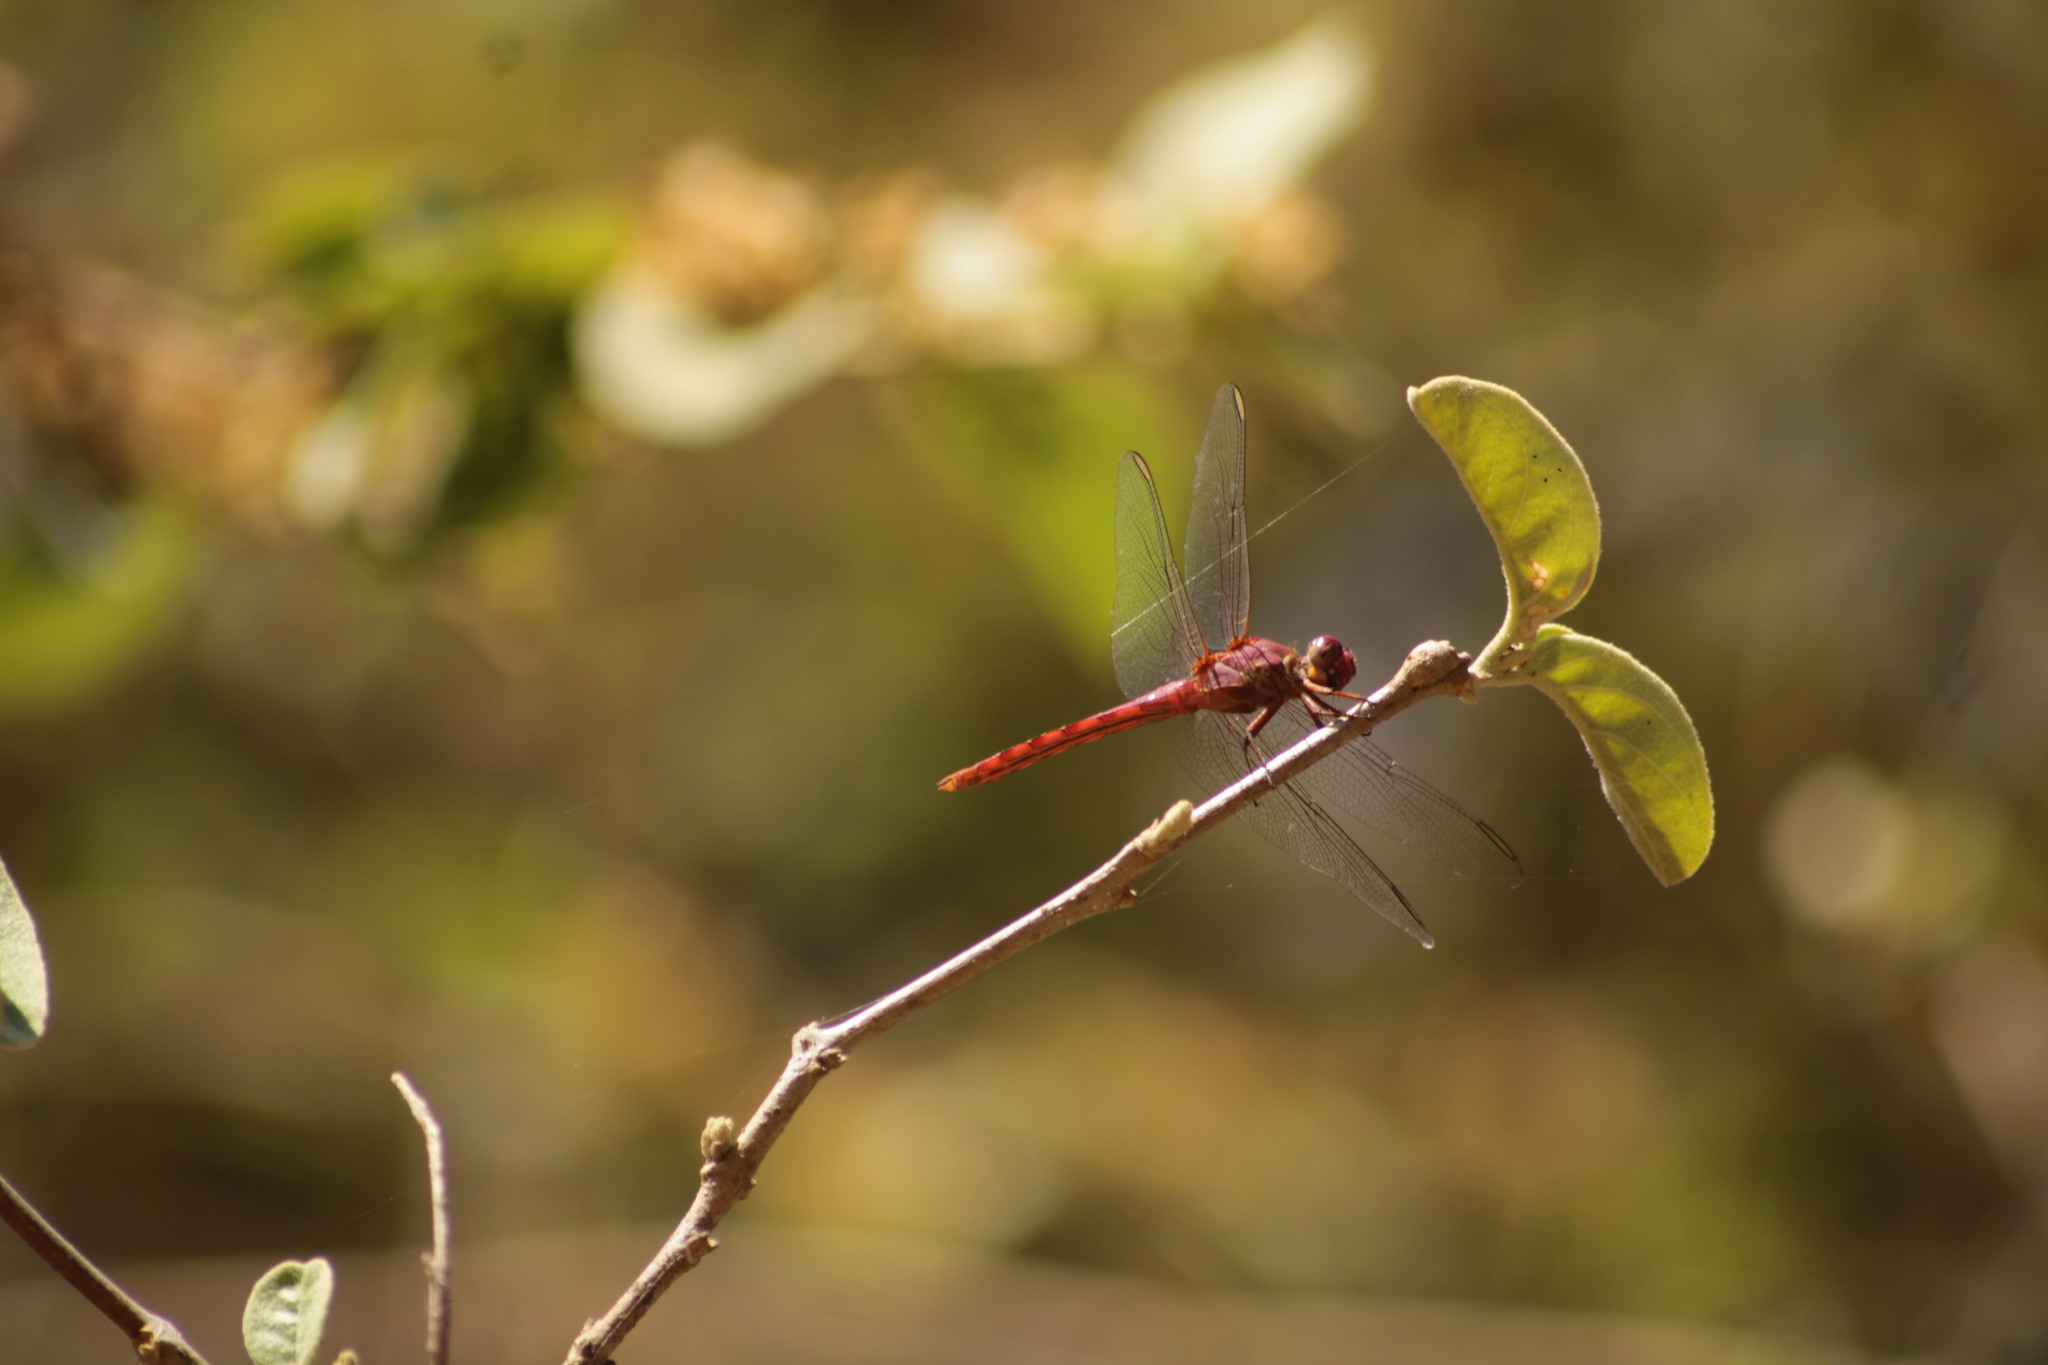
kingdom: Animalia
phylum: Arthropoda
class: Insecta
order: Odonata
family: Libellulidae
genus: Orthemis
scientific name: Orthemis discolor
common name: Carmine skimmer
